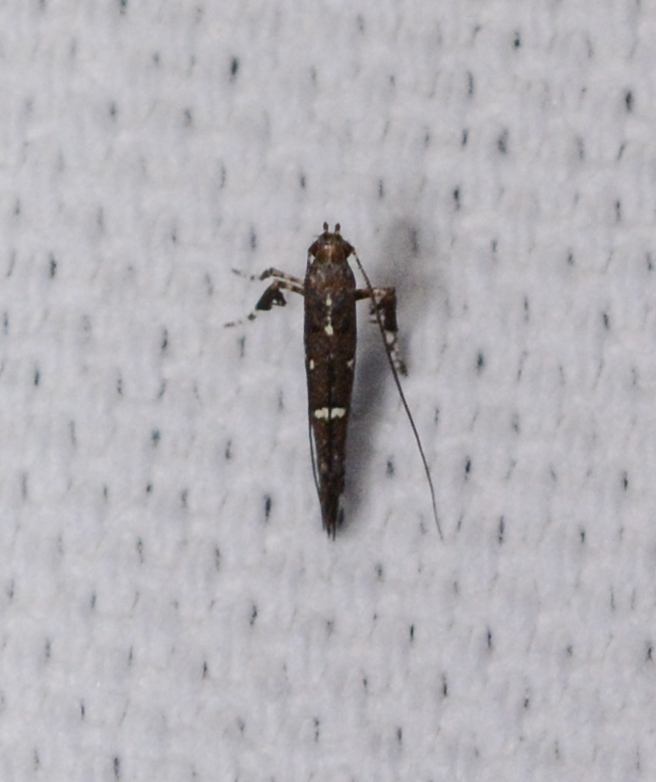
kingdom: Animalia
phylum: Arthropoda
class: Insecta
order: Lepidoptera
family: Gracillariidae
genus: Caloptilia
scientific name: Caloptilia triadicae
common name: Tallow leaf roller
